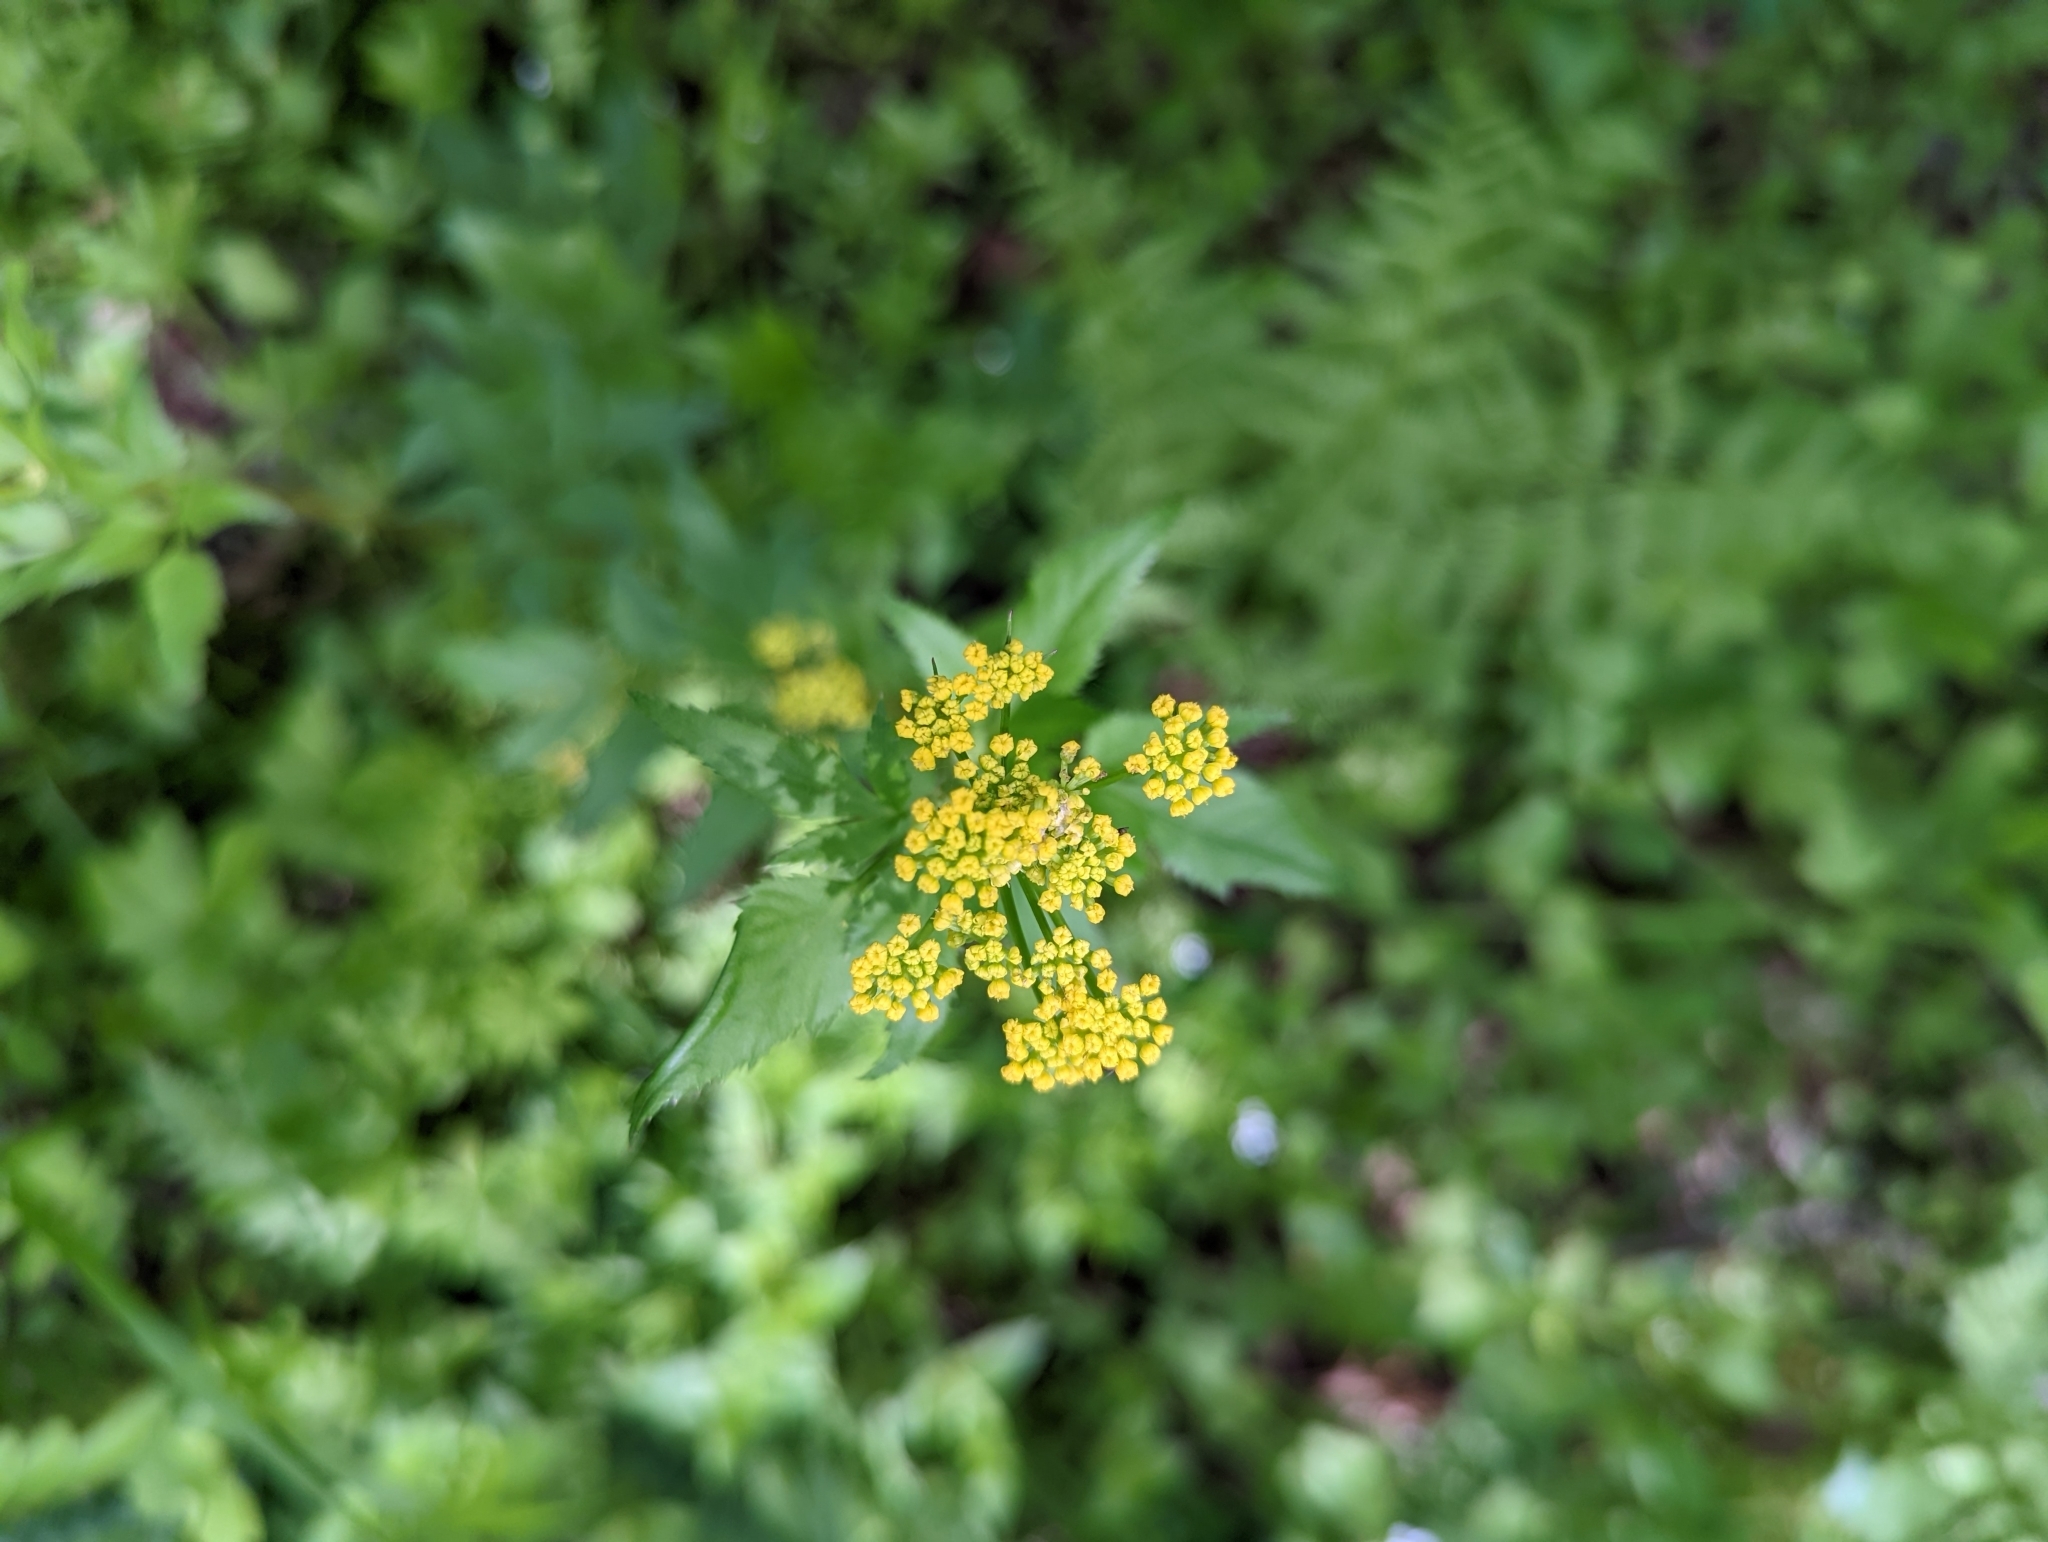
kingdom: Plantae
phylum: Tracheophyta
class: Magnoliopsida
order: Apiales
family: Apiaceae
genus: Zizia
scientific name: Zizia aurea
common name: Golden alexanders
